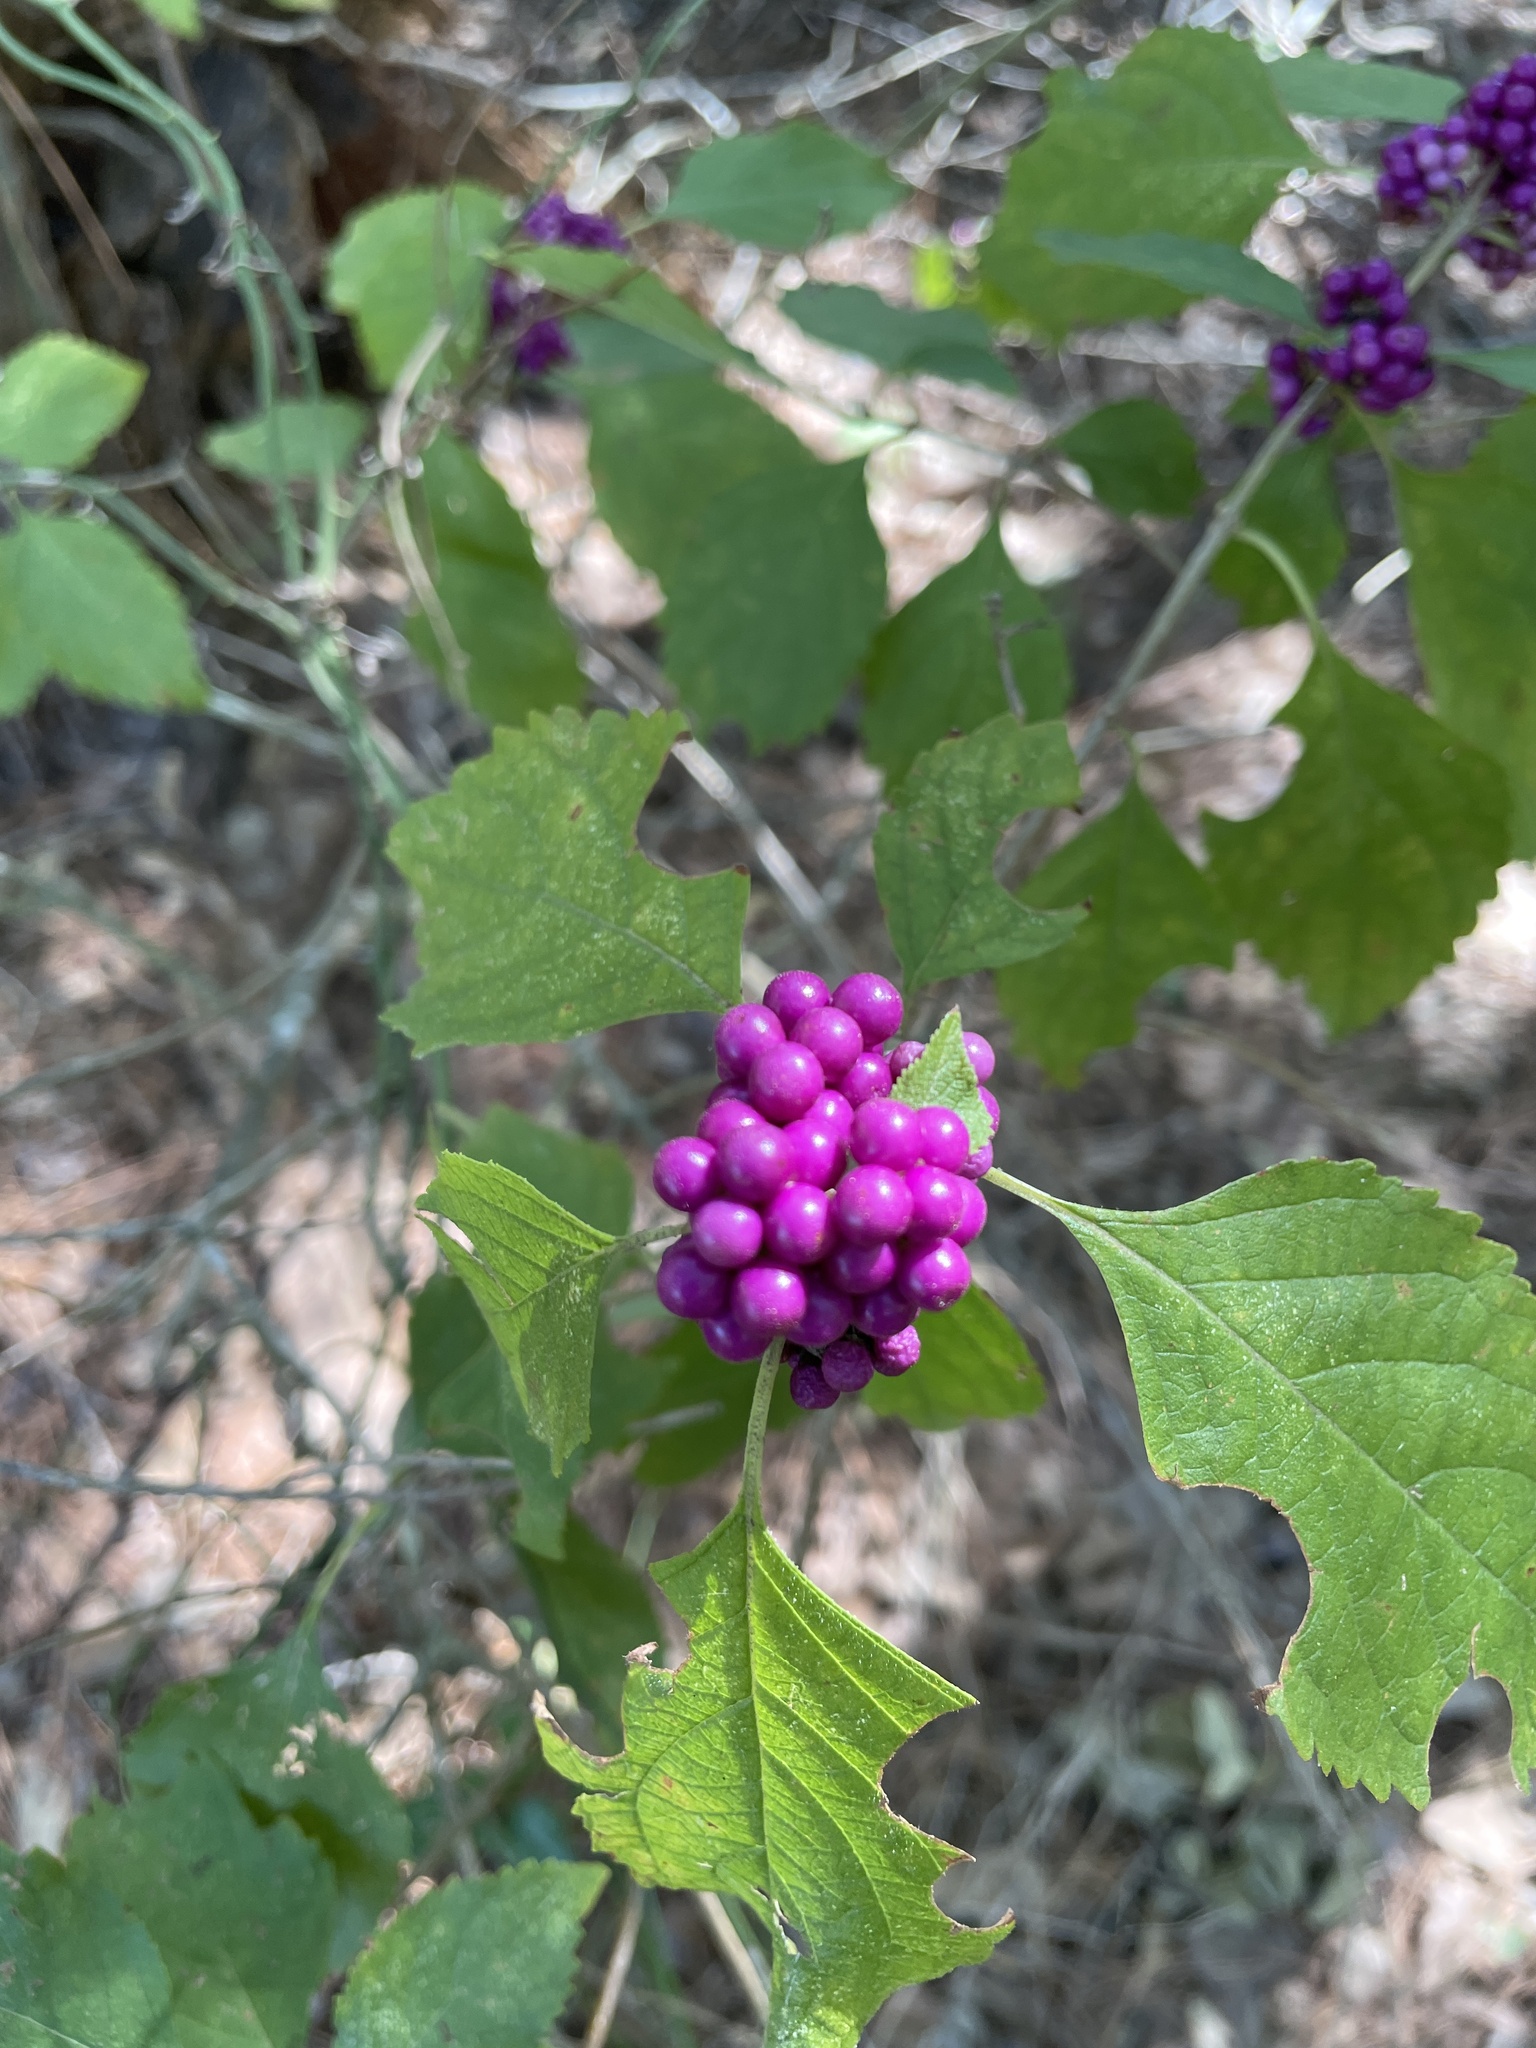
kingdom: Plantae
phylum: Tracheophyta
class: Magnoliopsida
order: Lamiales
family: Lamiaceae
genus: Callicarpa
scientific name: Callicarpa americana
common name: American beautyberry
